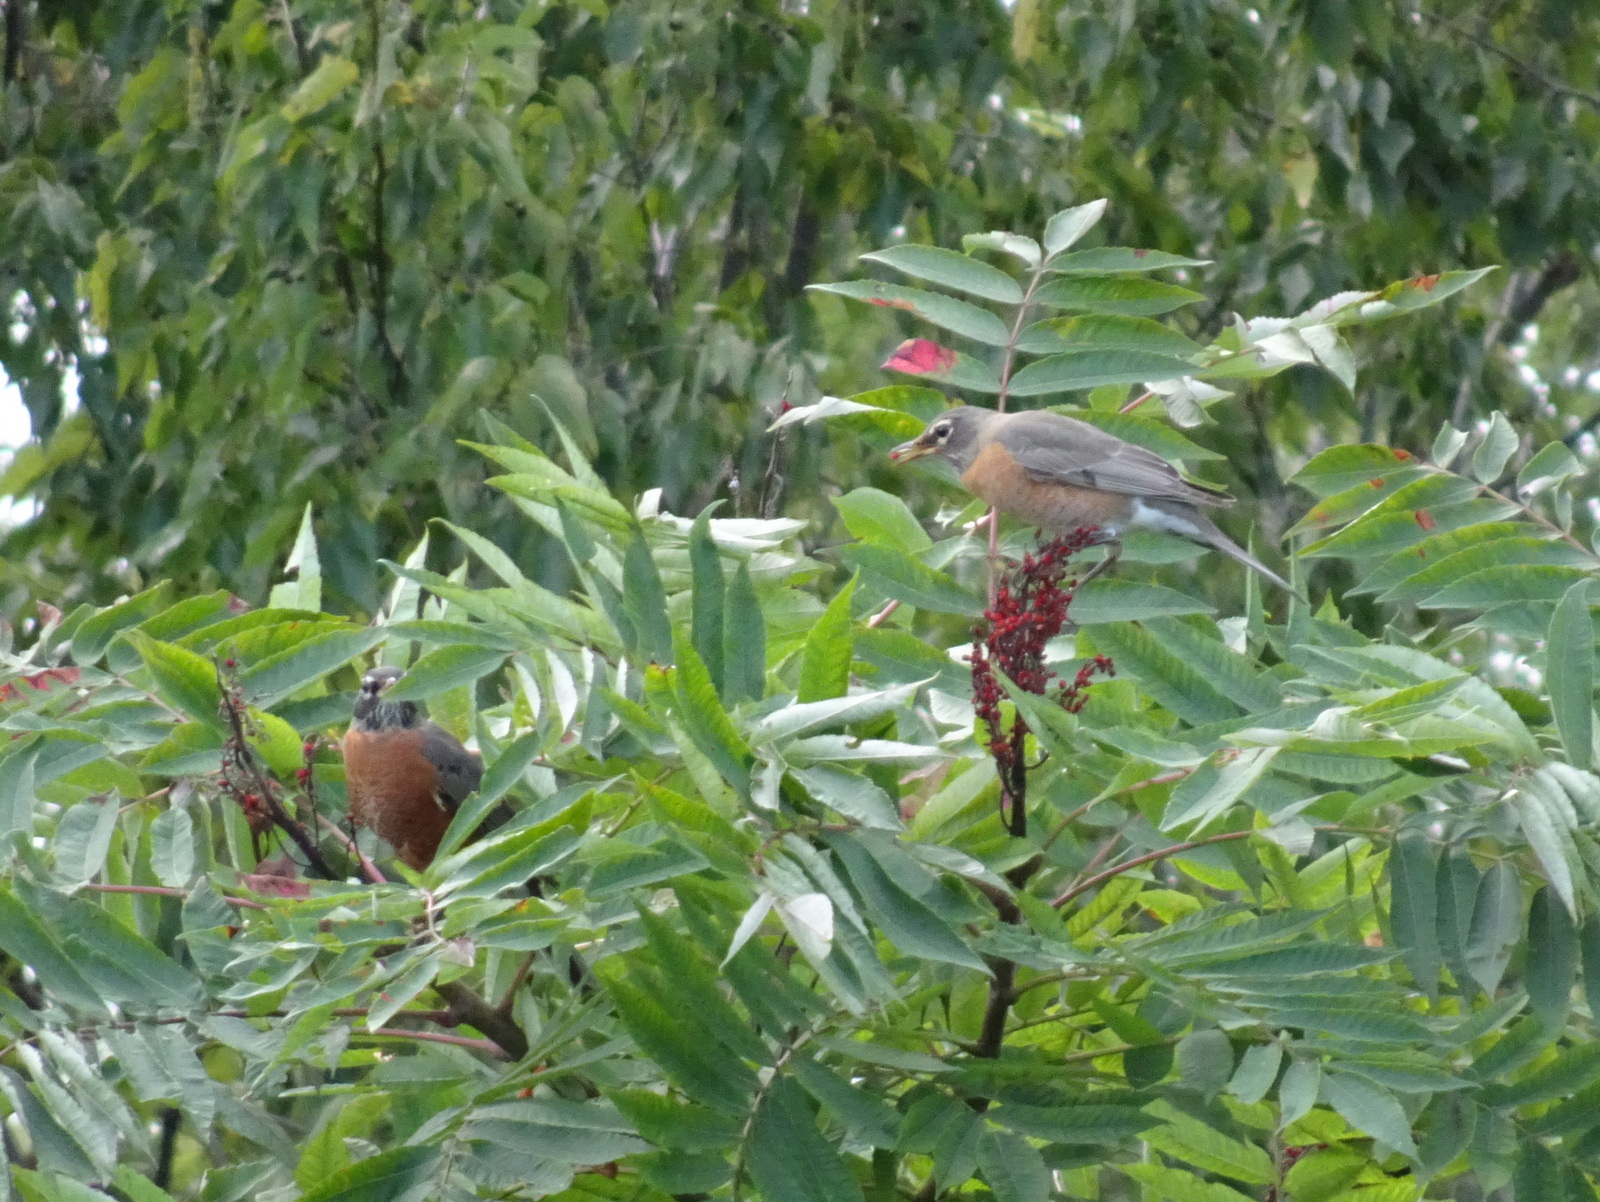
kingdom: Animalia
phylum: Chordata
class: Aves
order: Passeriformes
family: Turdidae
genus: Turdus
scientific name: Turdus migratorius
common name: American robin
